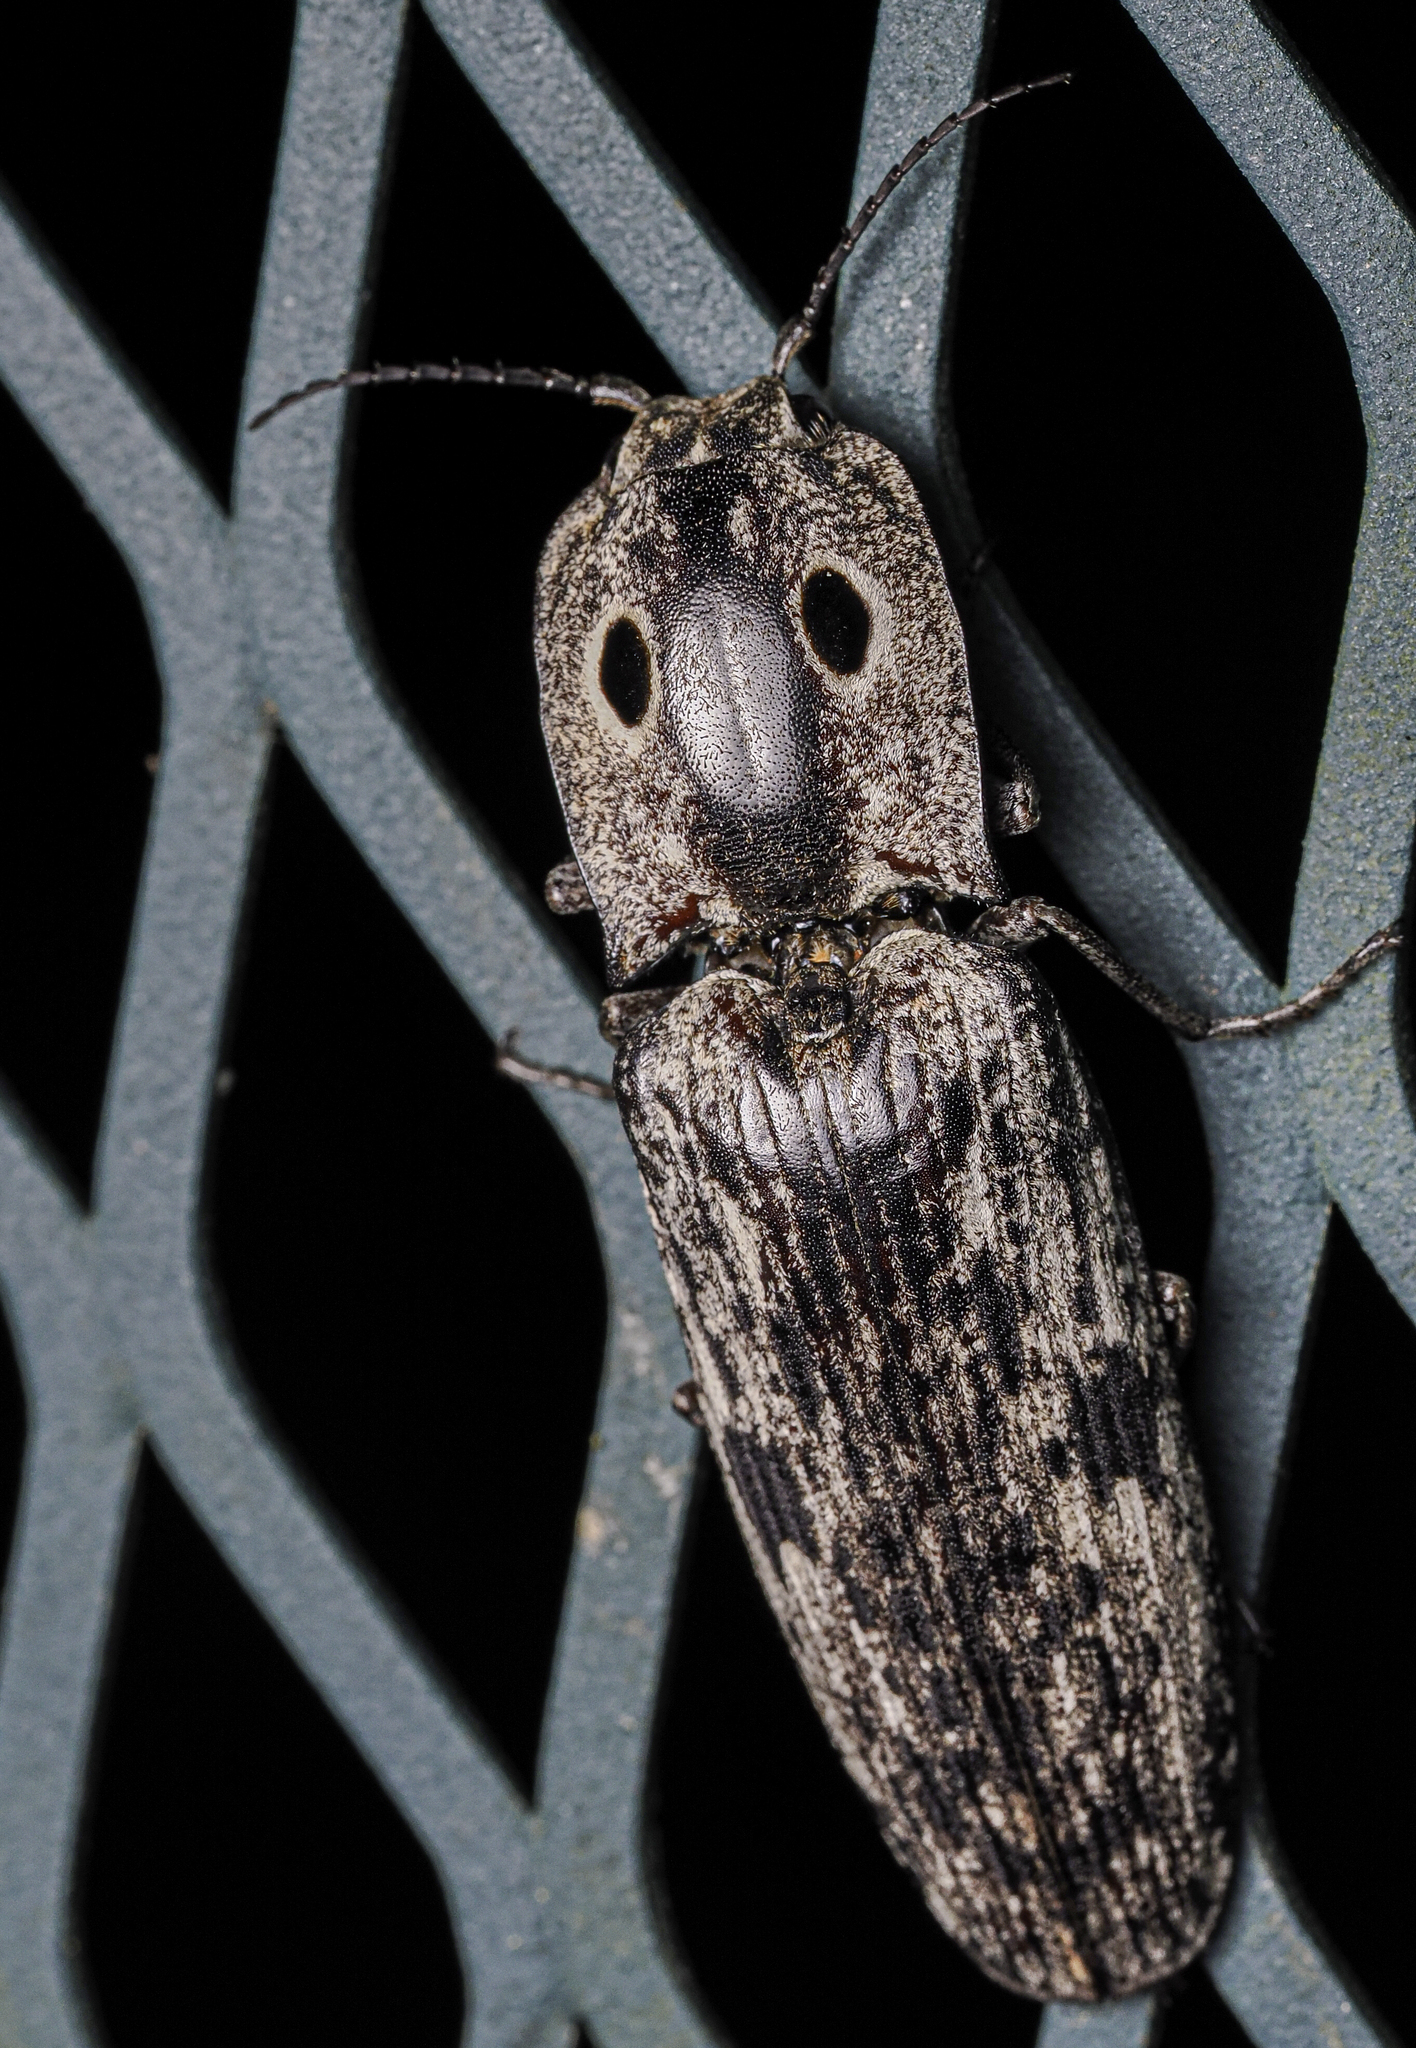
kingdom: Animalia
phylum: Arthropoda
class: Insecta
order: Coleoptera
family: Elateridae
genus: Alaus
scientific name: Alaus myops
